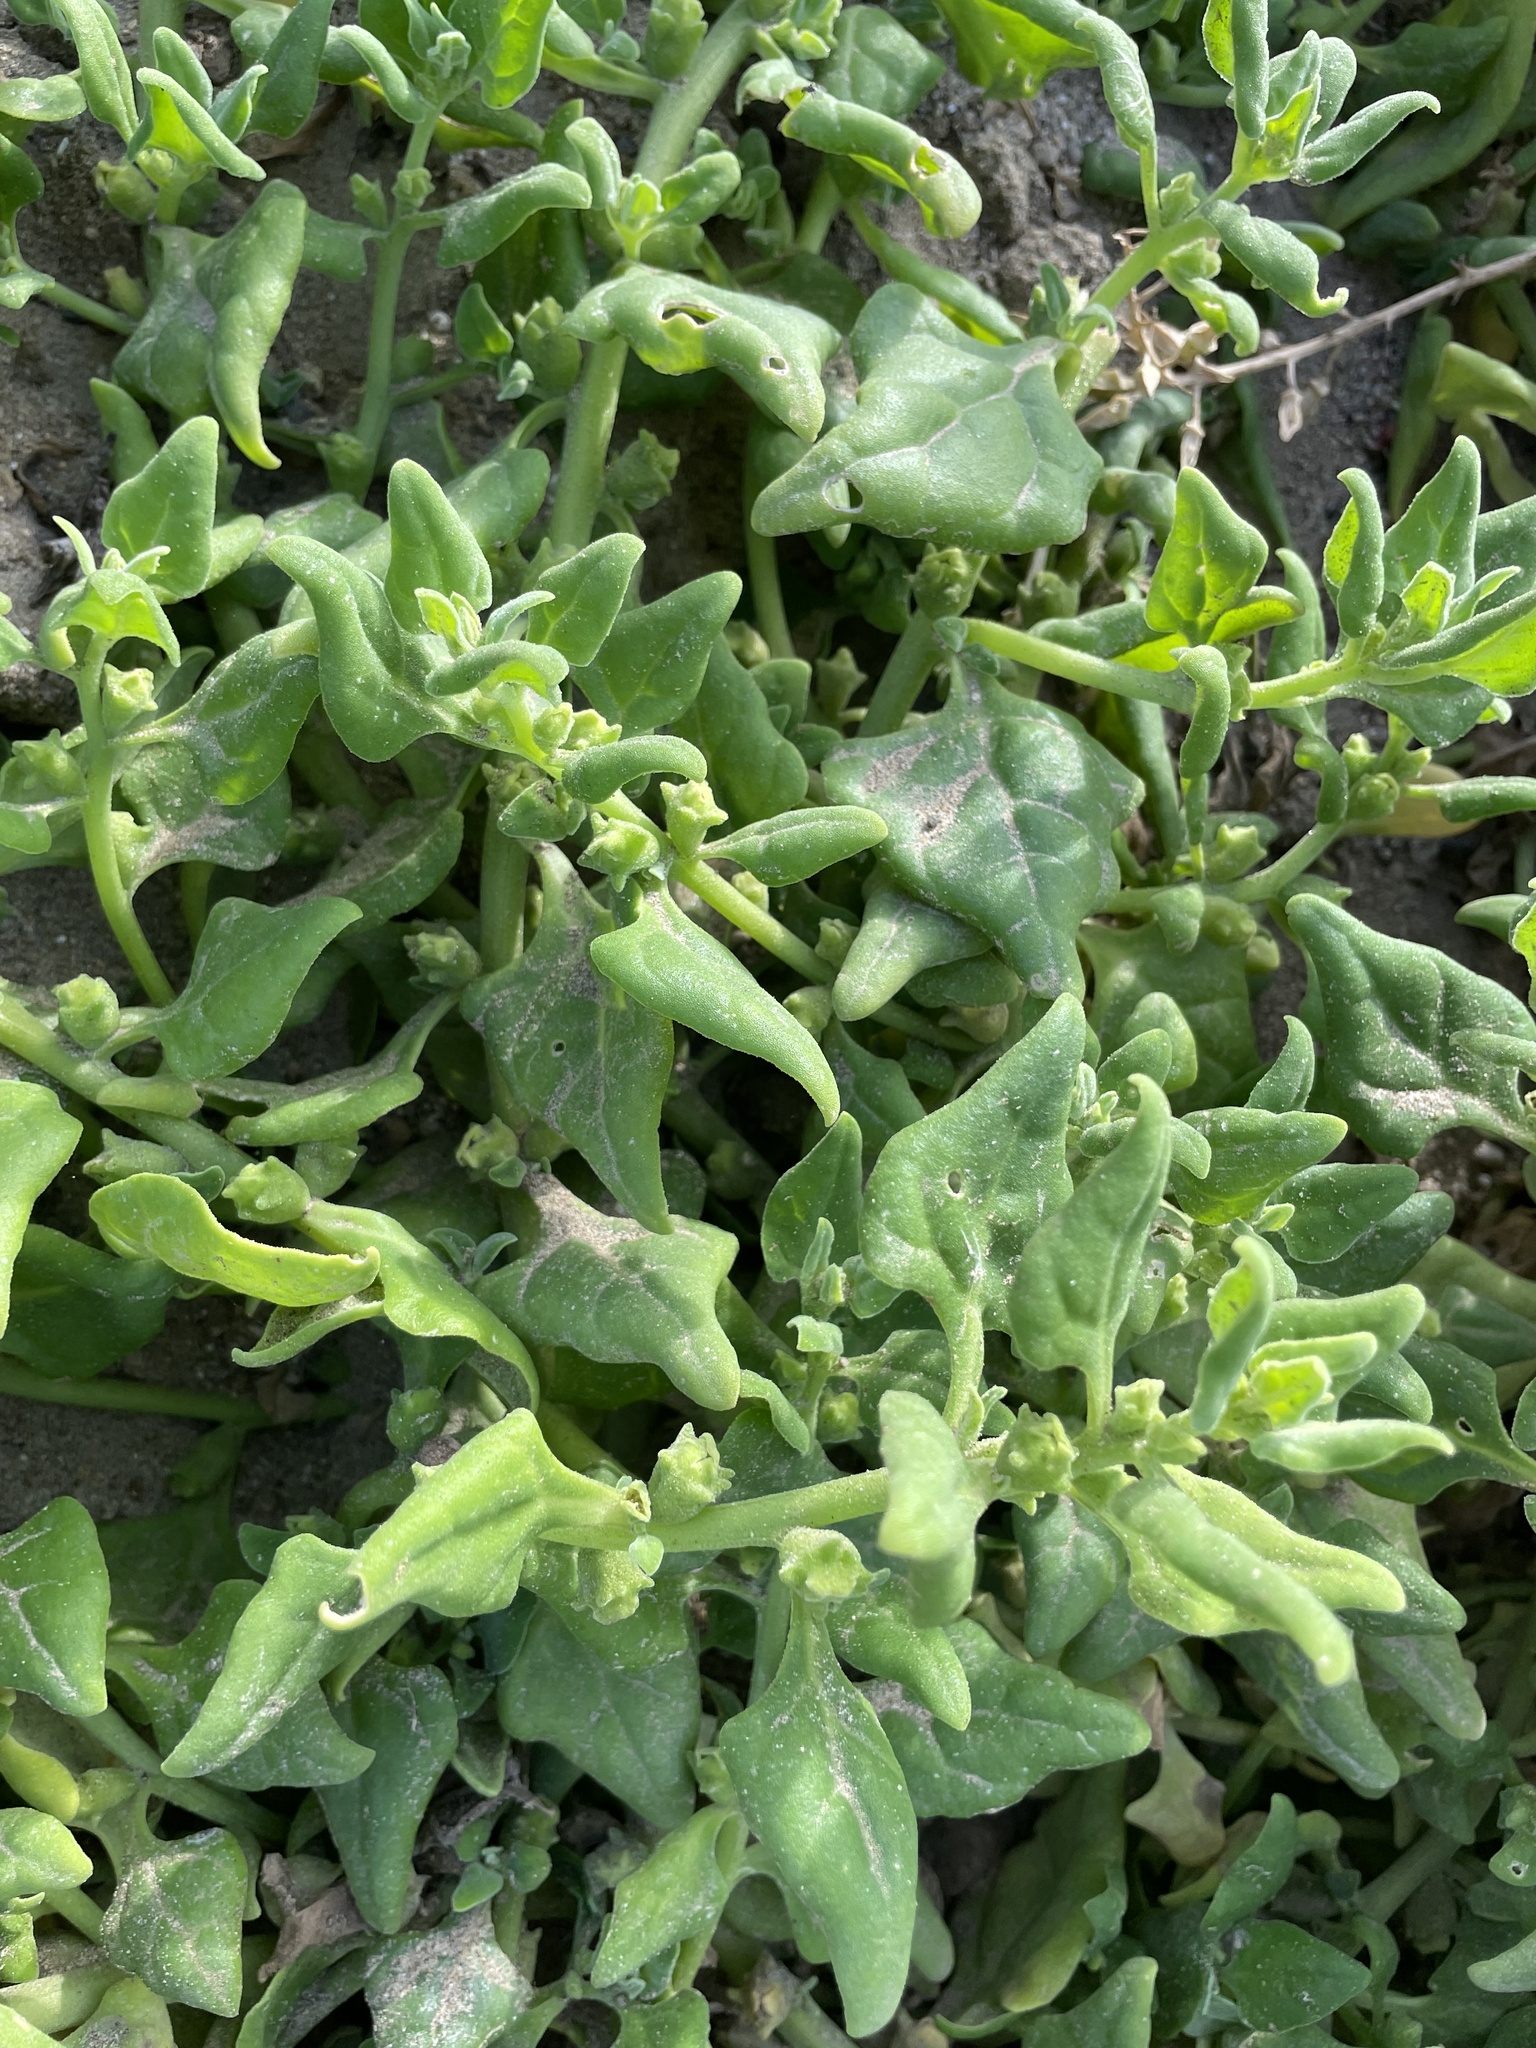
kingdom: Plantae
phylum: Tracheophyta
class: Magnoliopsida
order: Caryophyllales
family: Aizoaceae
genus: Tetragonia
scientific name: Tetragonia tetragonoides
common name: New zealand-spinach
